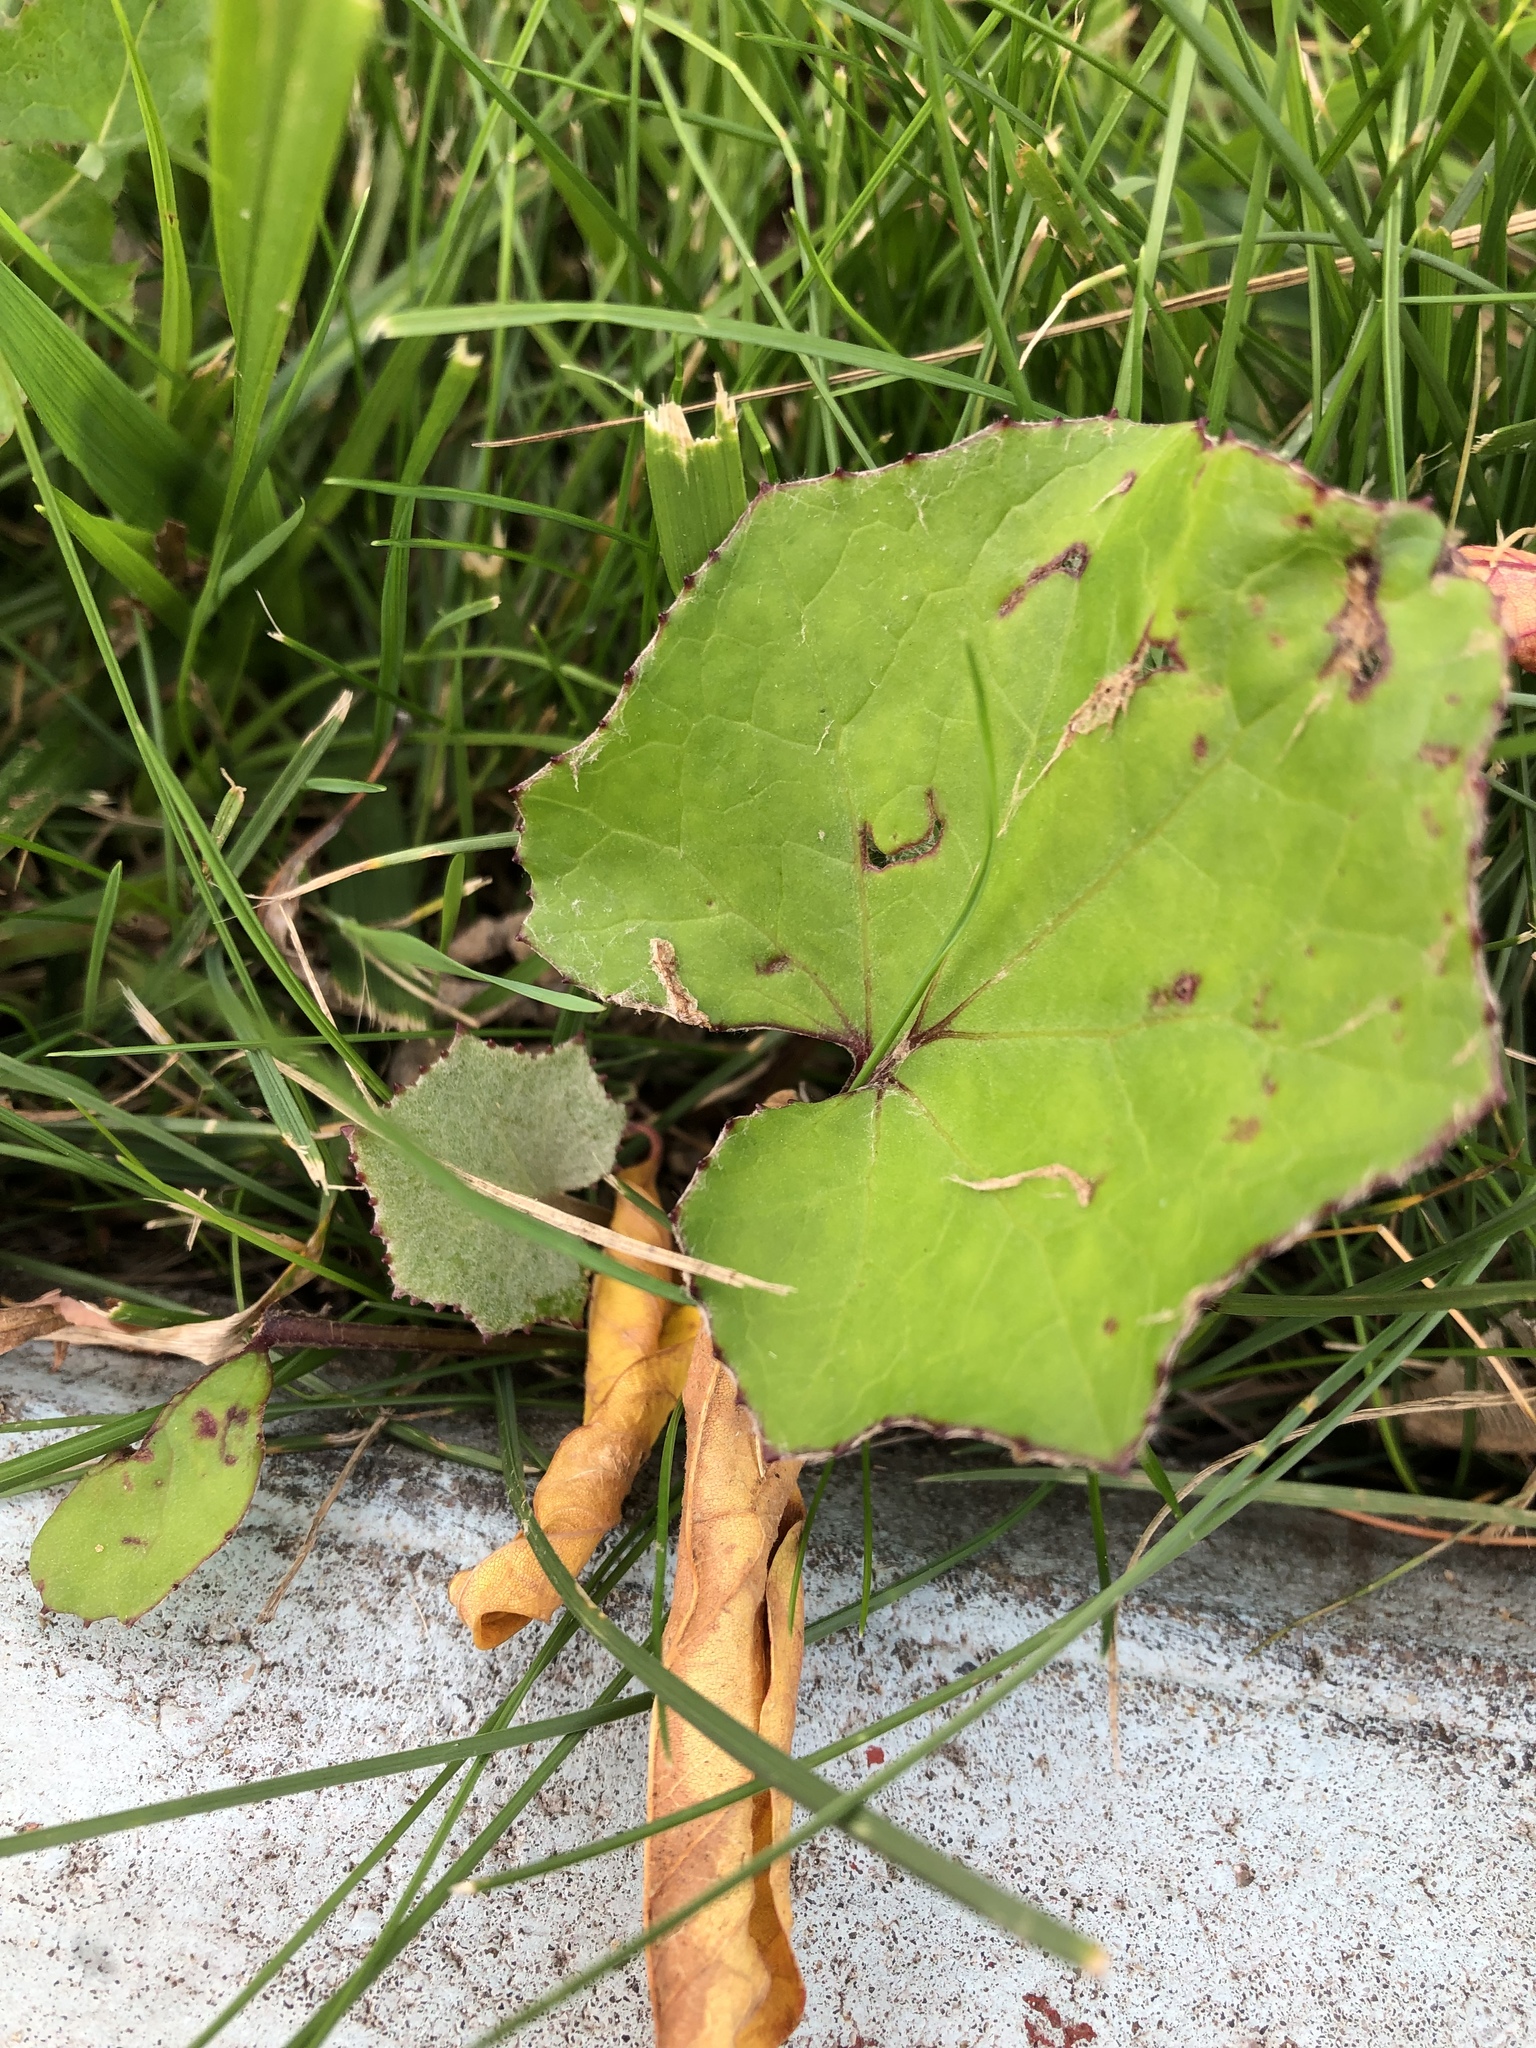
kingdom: Plantae
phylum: Tracheophyta
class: Magnoliopsida
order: Asterales
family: Asteraceae
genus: Tussilago
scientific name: Tussilago farfara
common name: Coltsfoot
